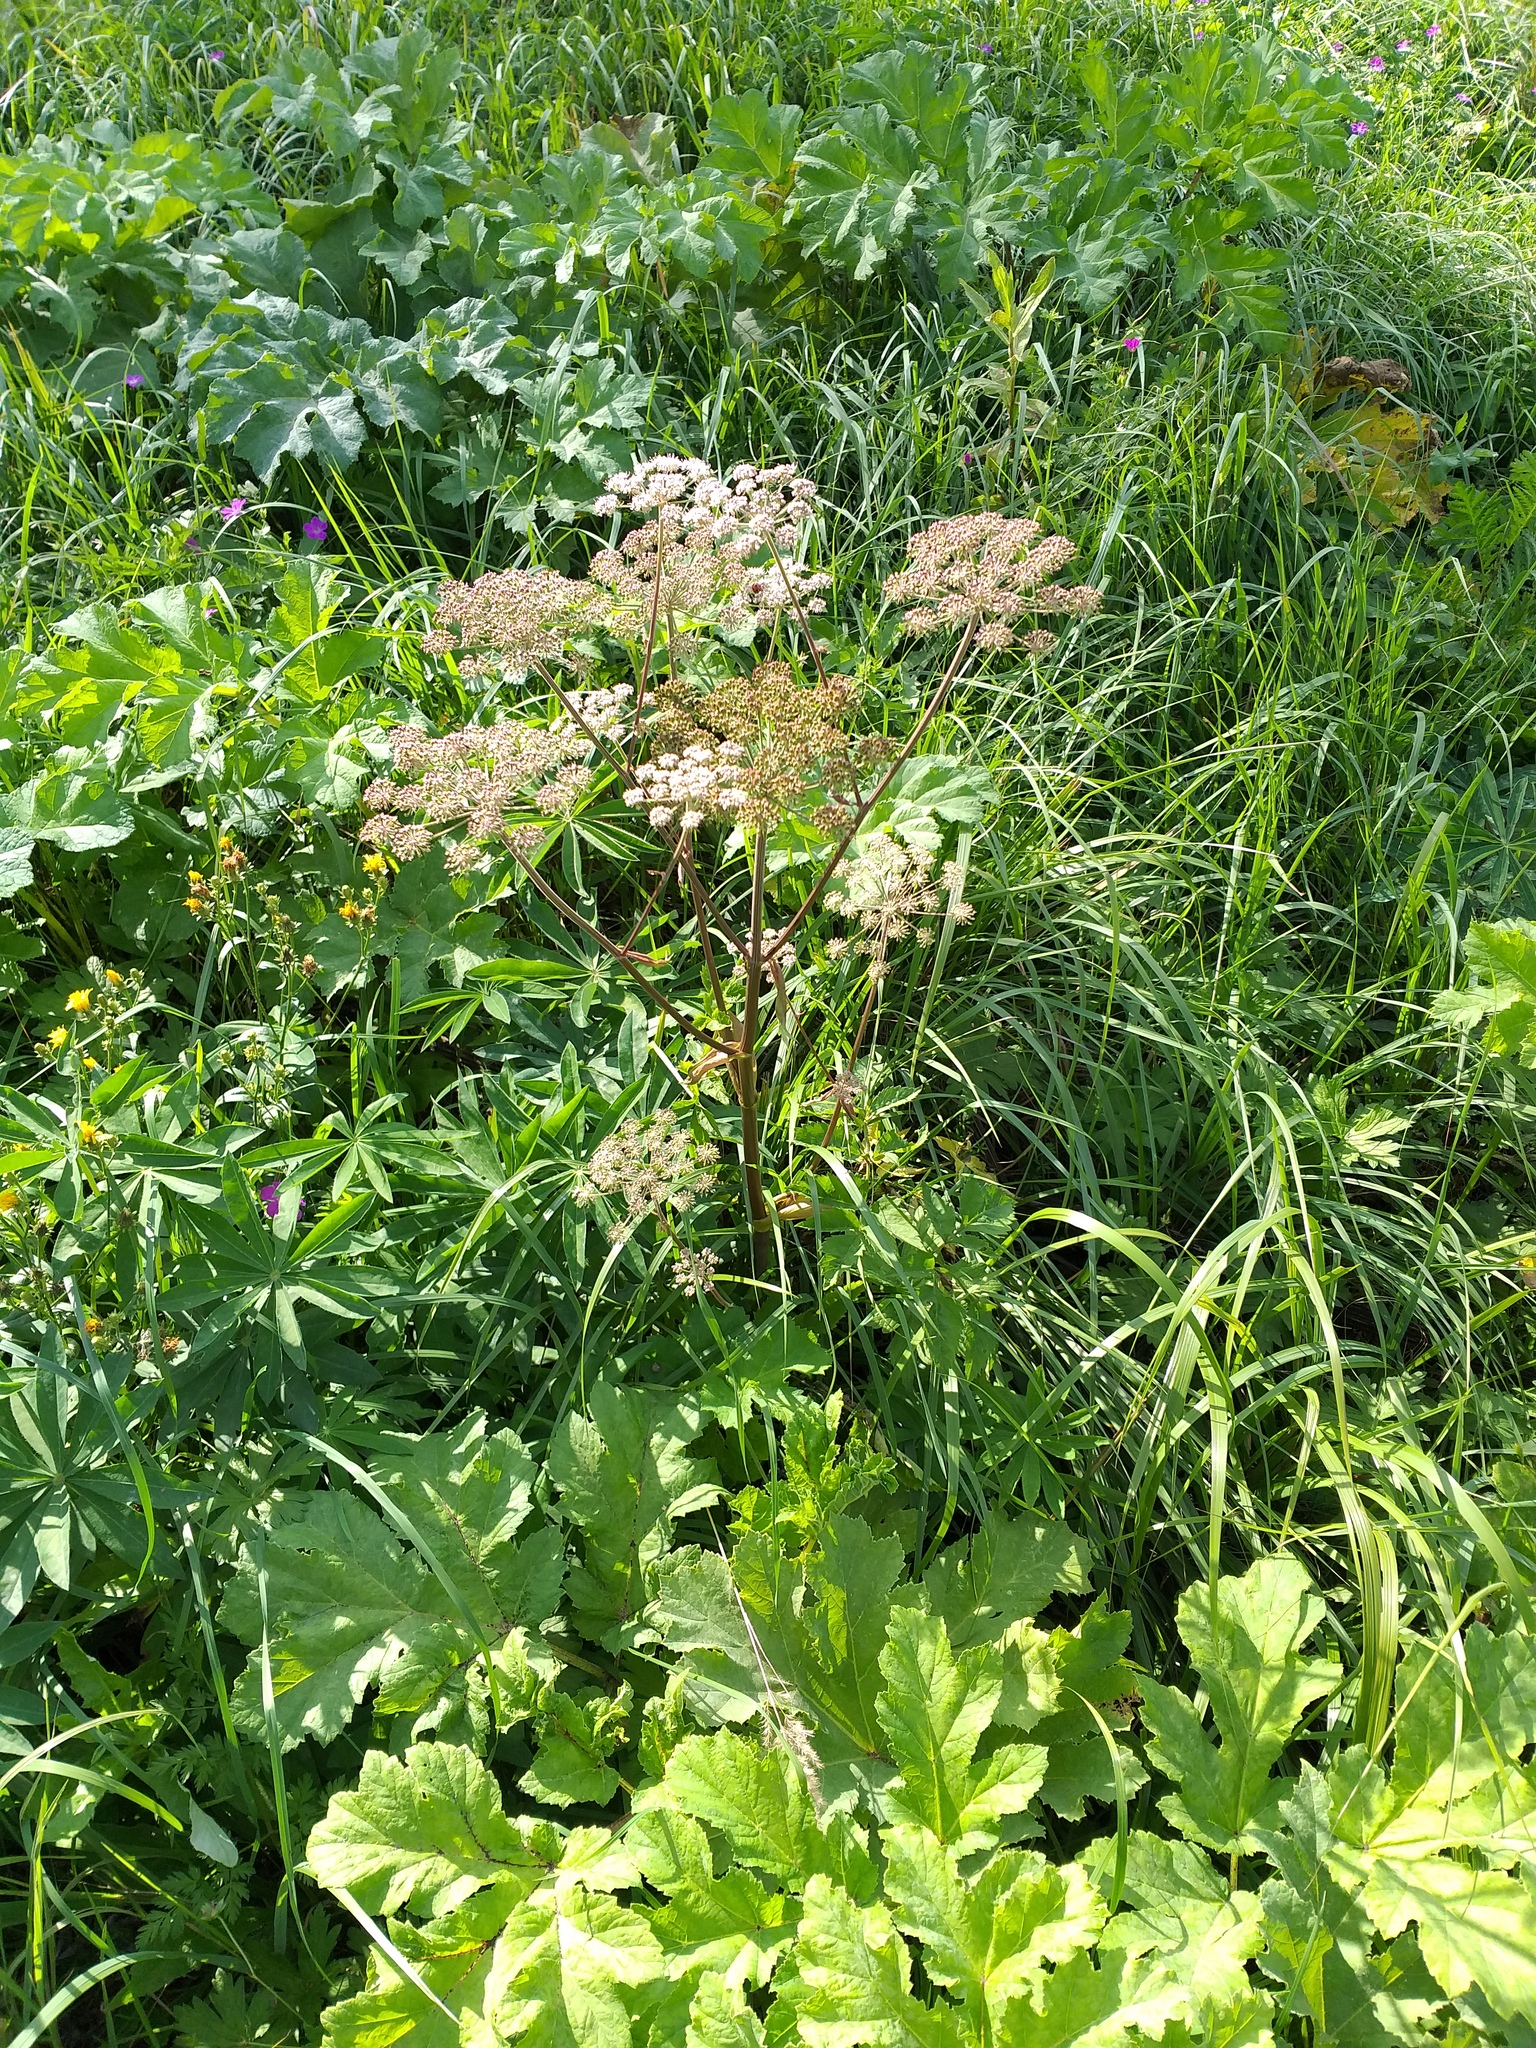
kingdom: Plantae
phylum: Tracheophyta
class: Magnoliopsida
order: Apiales
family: Apiaceae
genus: Angelica
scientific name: Angelica sylvestris
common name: Wild angelica
